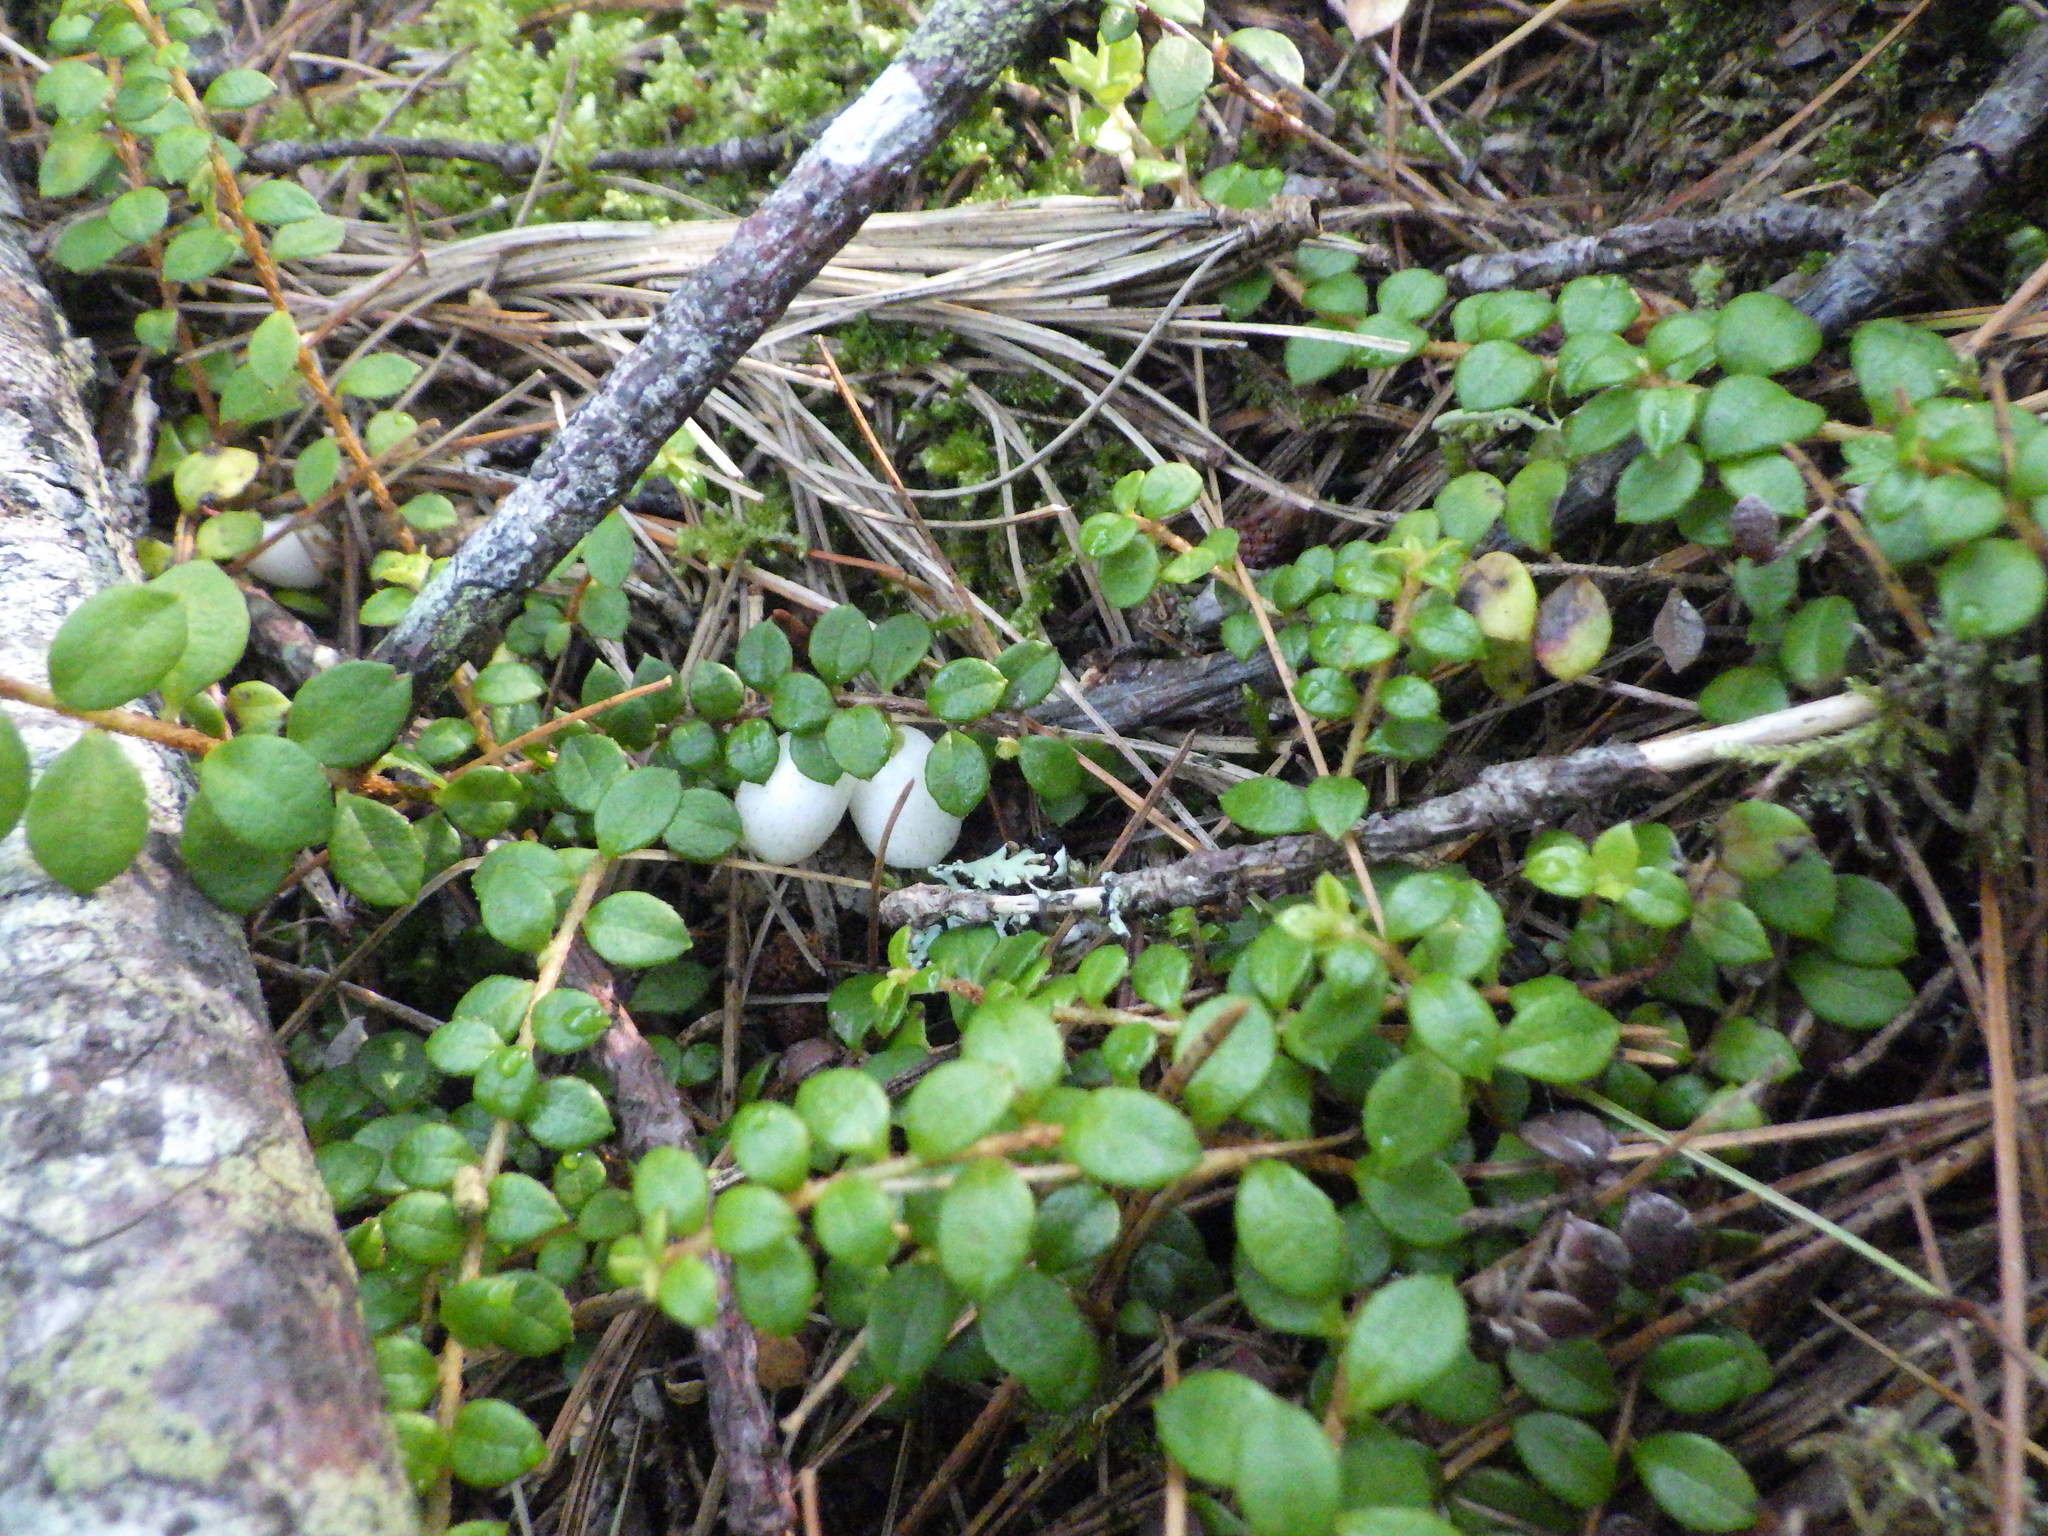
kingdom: Plantae
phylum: Tracheophyta
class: Magnoliopsida
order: Ericales
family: Ericaceae
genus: Gaultheria
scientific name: Gaultheria hispidula
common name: Cancer wintergreen
